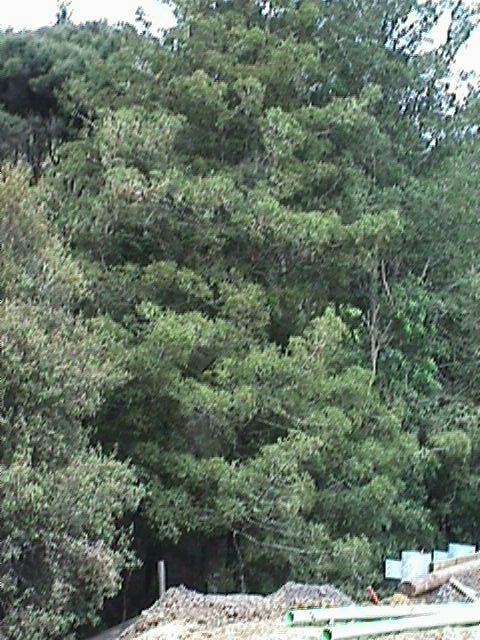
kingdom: Plantae
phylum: Tracheophyta
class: Pinopsida
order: Pinales
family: Phyllocladaceae
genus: Phyllocladus
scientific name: Phyllocladus trichomanoides
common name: Celery pine
